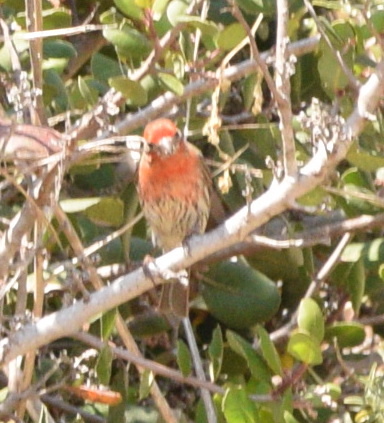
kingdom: Animalia
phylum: Chordata
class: Aves
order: Passeriformes
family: Fringillidae
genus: Haemorhous
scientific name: Haemorhous mexicanus
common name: House finch
